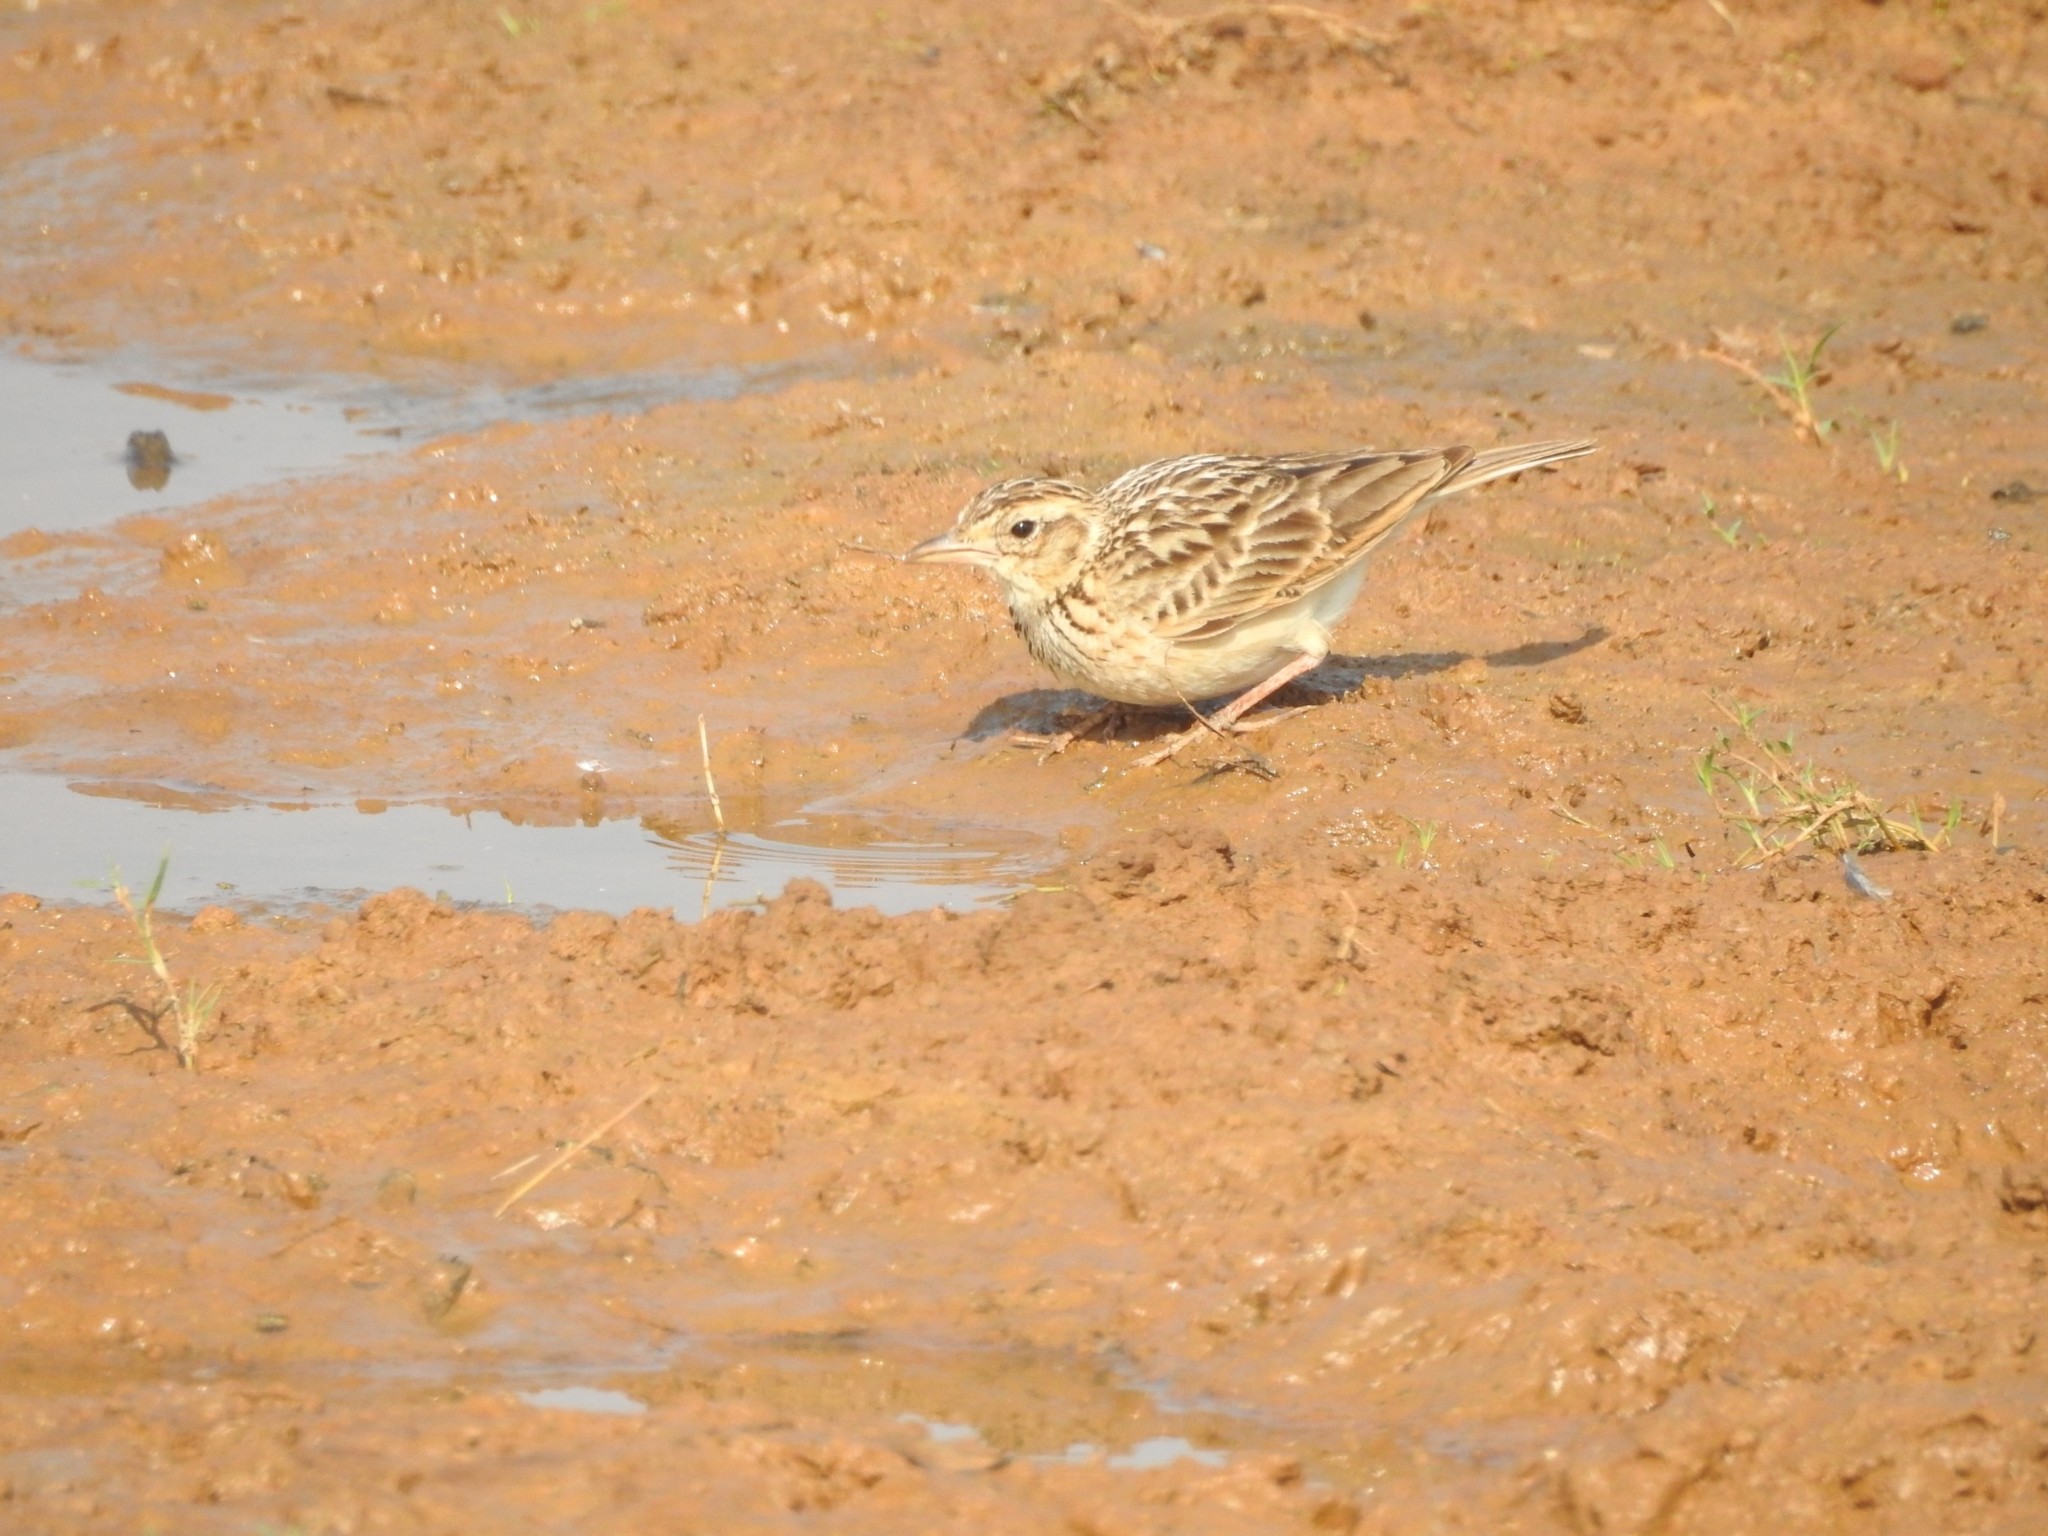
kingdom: Animalia
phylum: Chordata
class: Aves
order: Passeriformes
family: Alaudidae
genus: Mirafra
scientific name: Mirafra affinis
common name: Jerdon's bushlark
